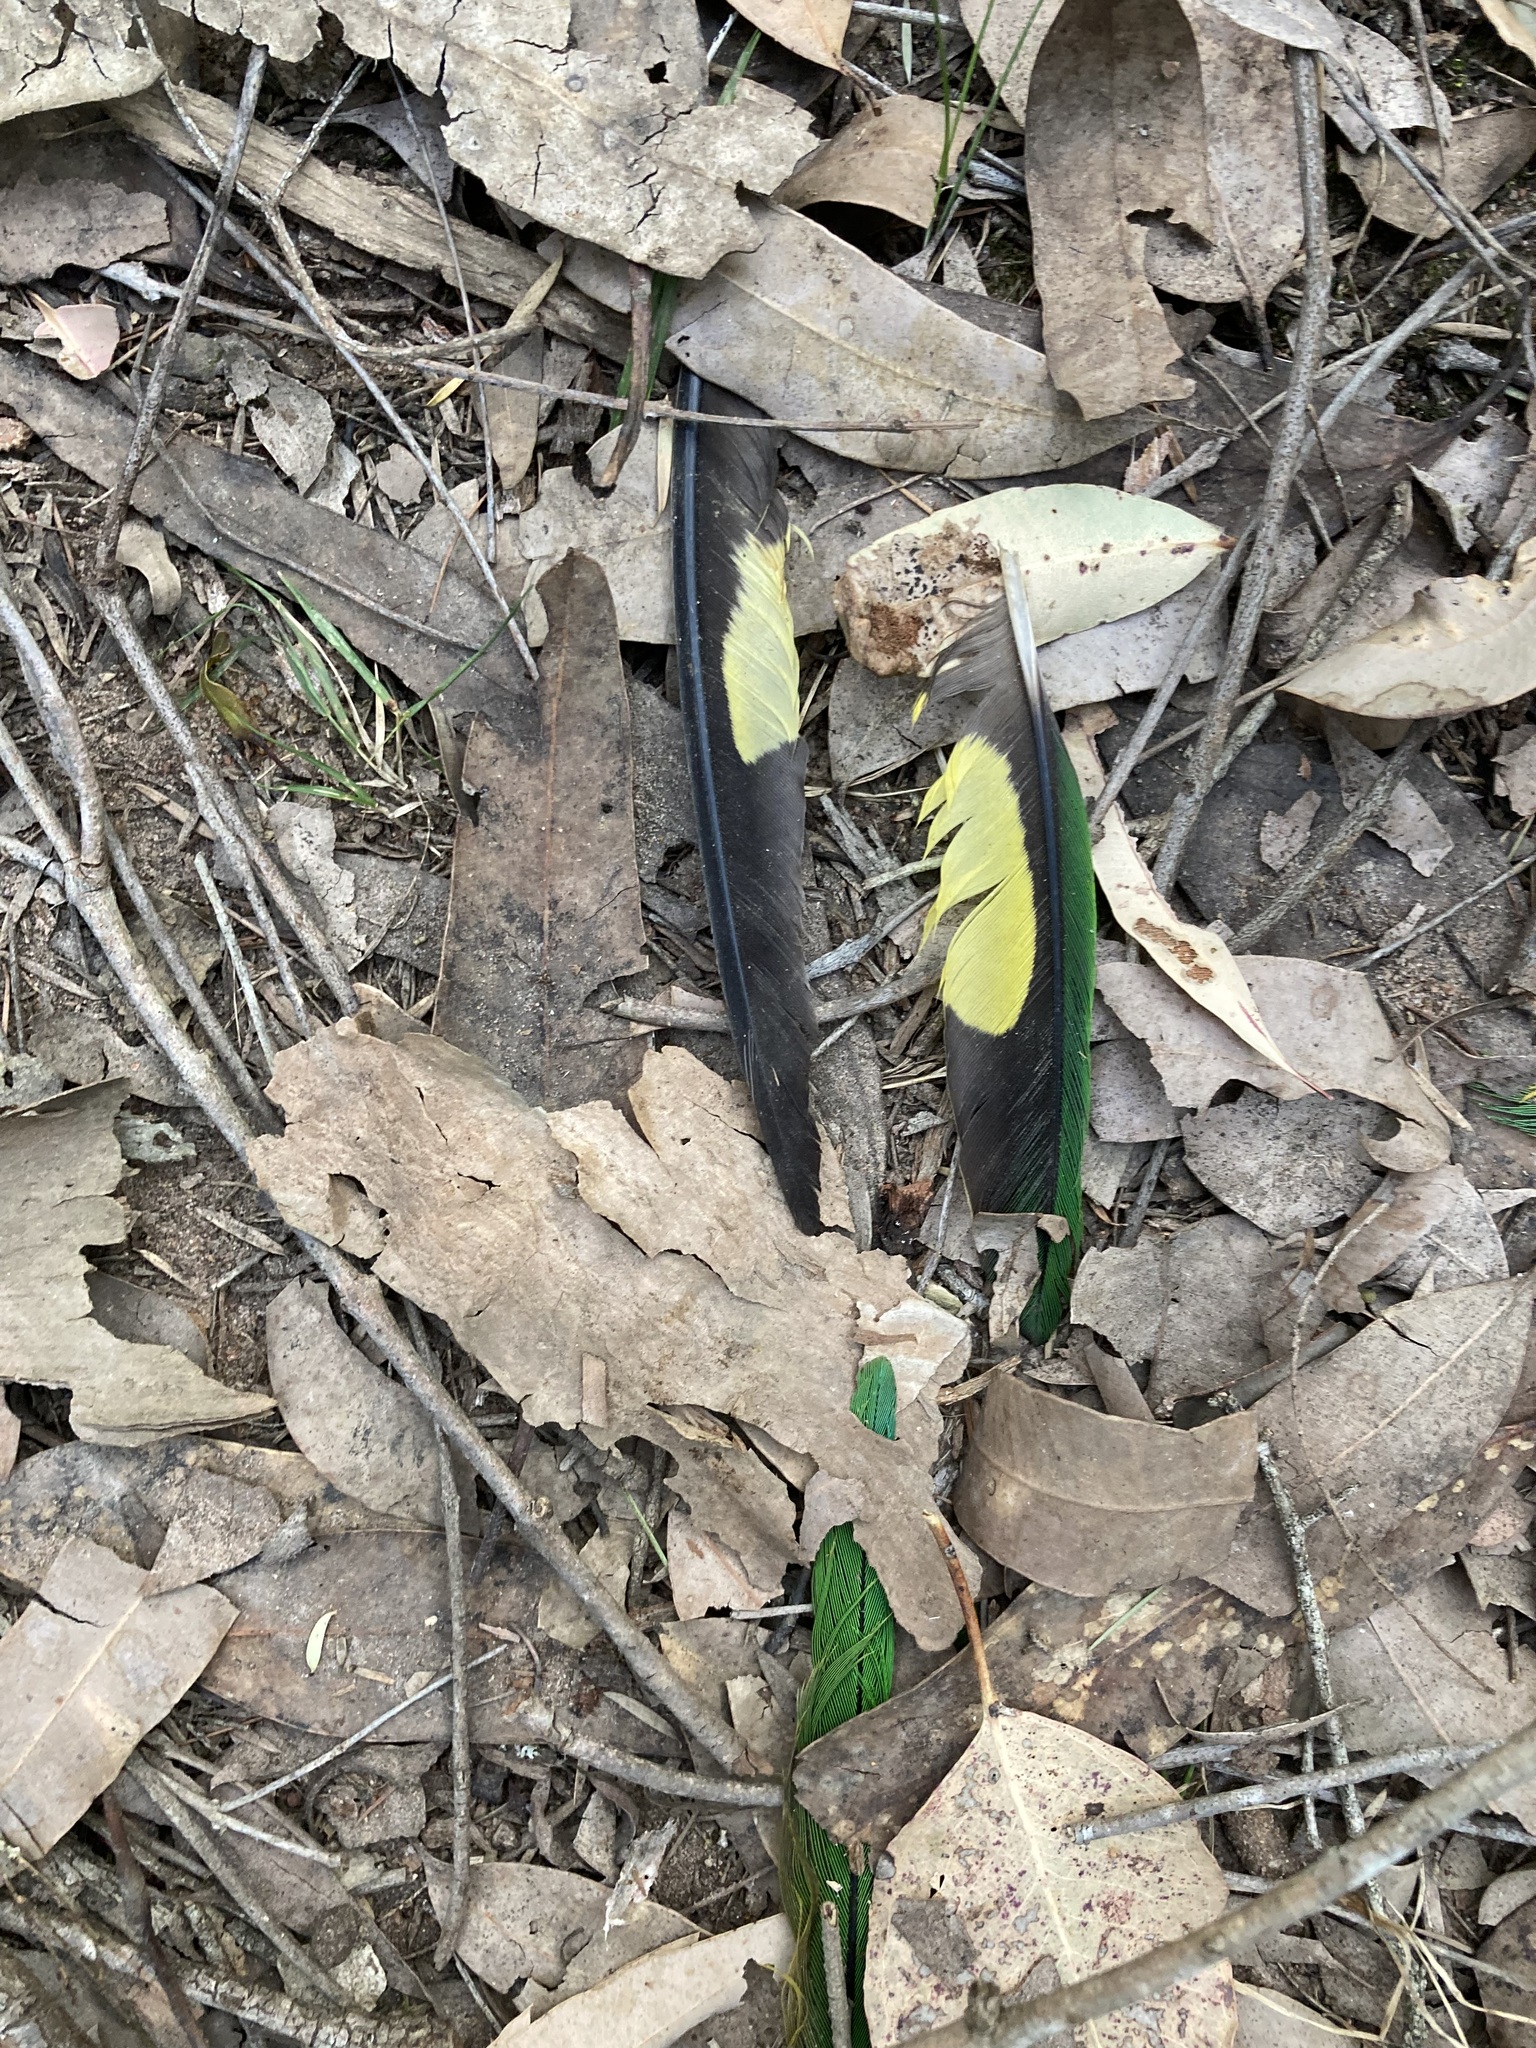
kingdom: Animalia
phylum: Chordata
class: Aves
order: Psittaciformes
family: Psittacidae
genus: Trichoglossus
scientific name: Trichoglossus haematodus
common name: Coconut lorikeet
